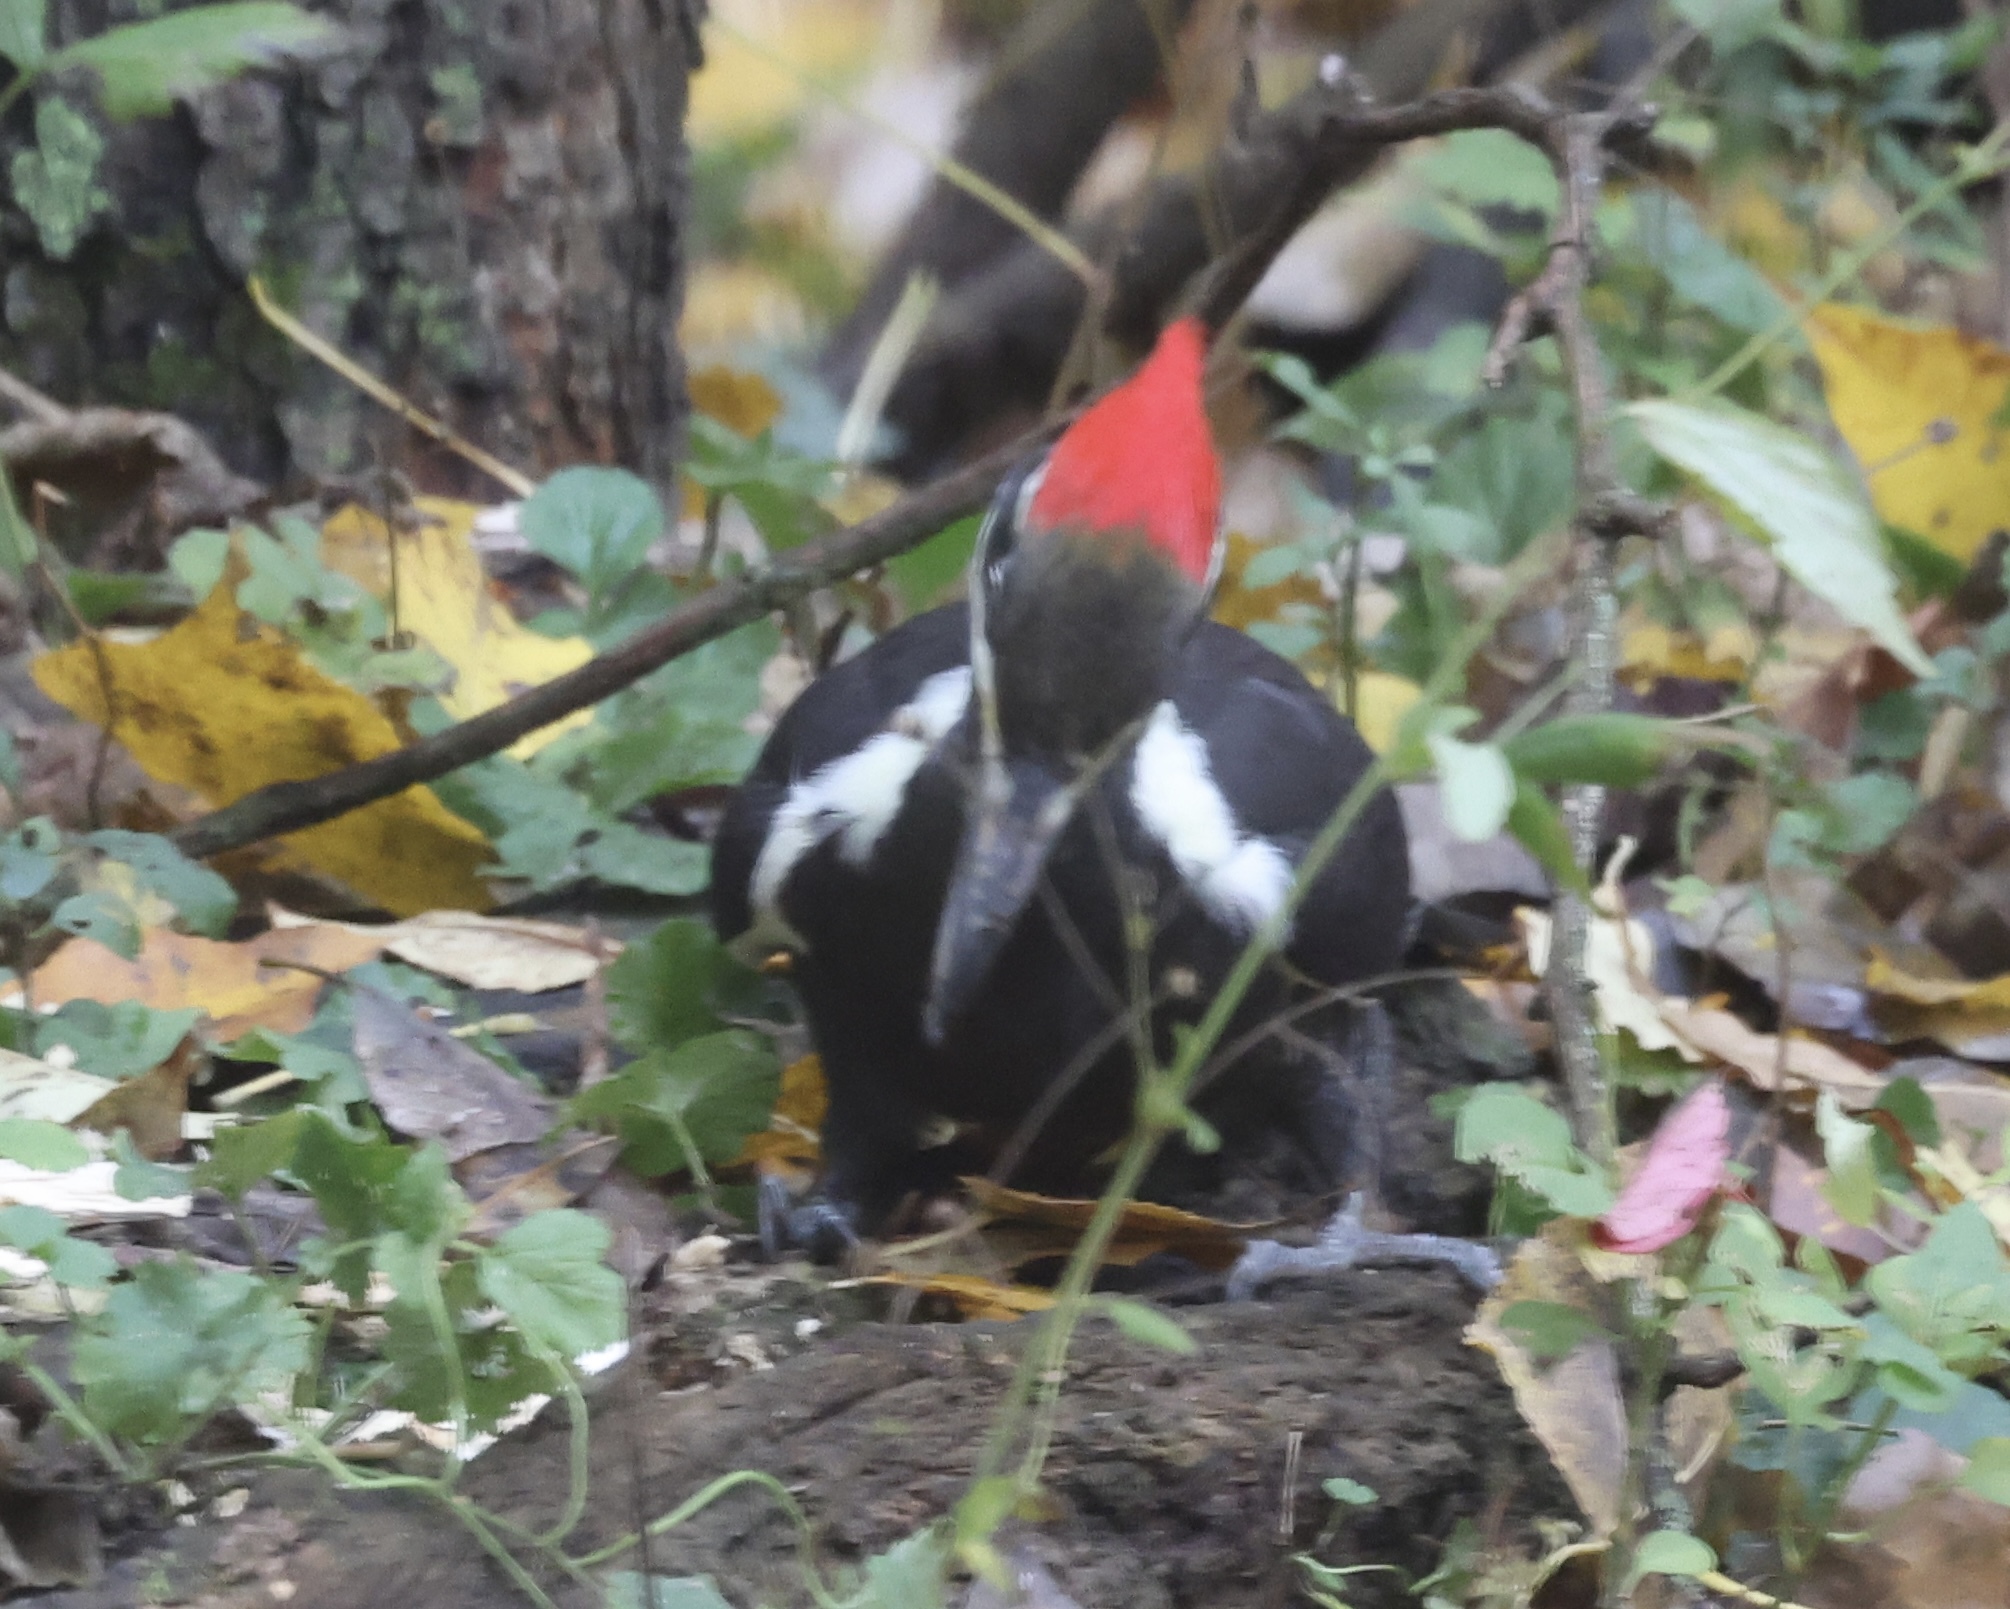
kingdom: Animalia
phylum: Chordata
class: Aves
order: Piciformes
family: Picidae
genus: Dryocopus
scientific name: Dryocopus pileatus
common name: Pileated woodpecker
